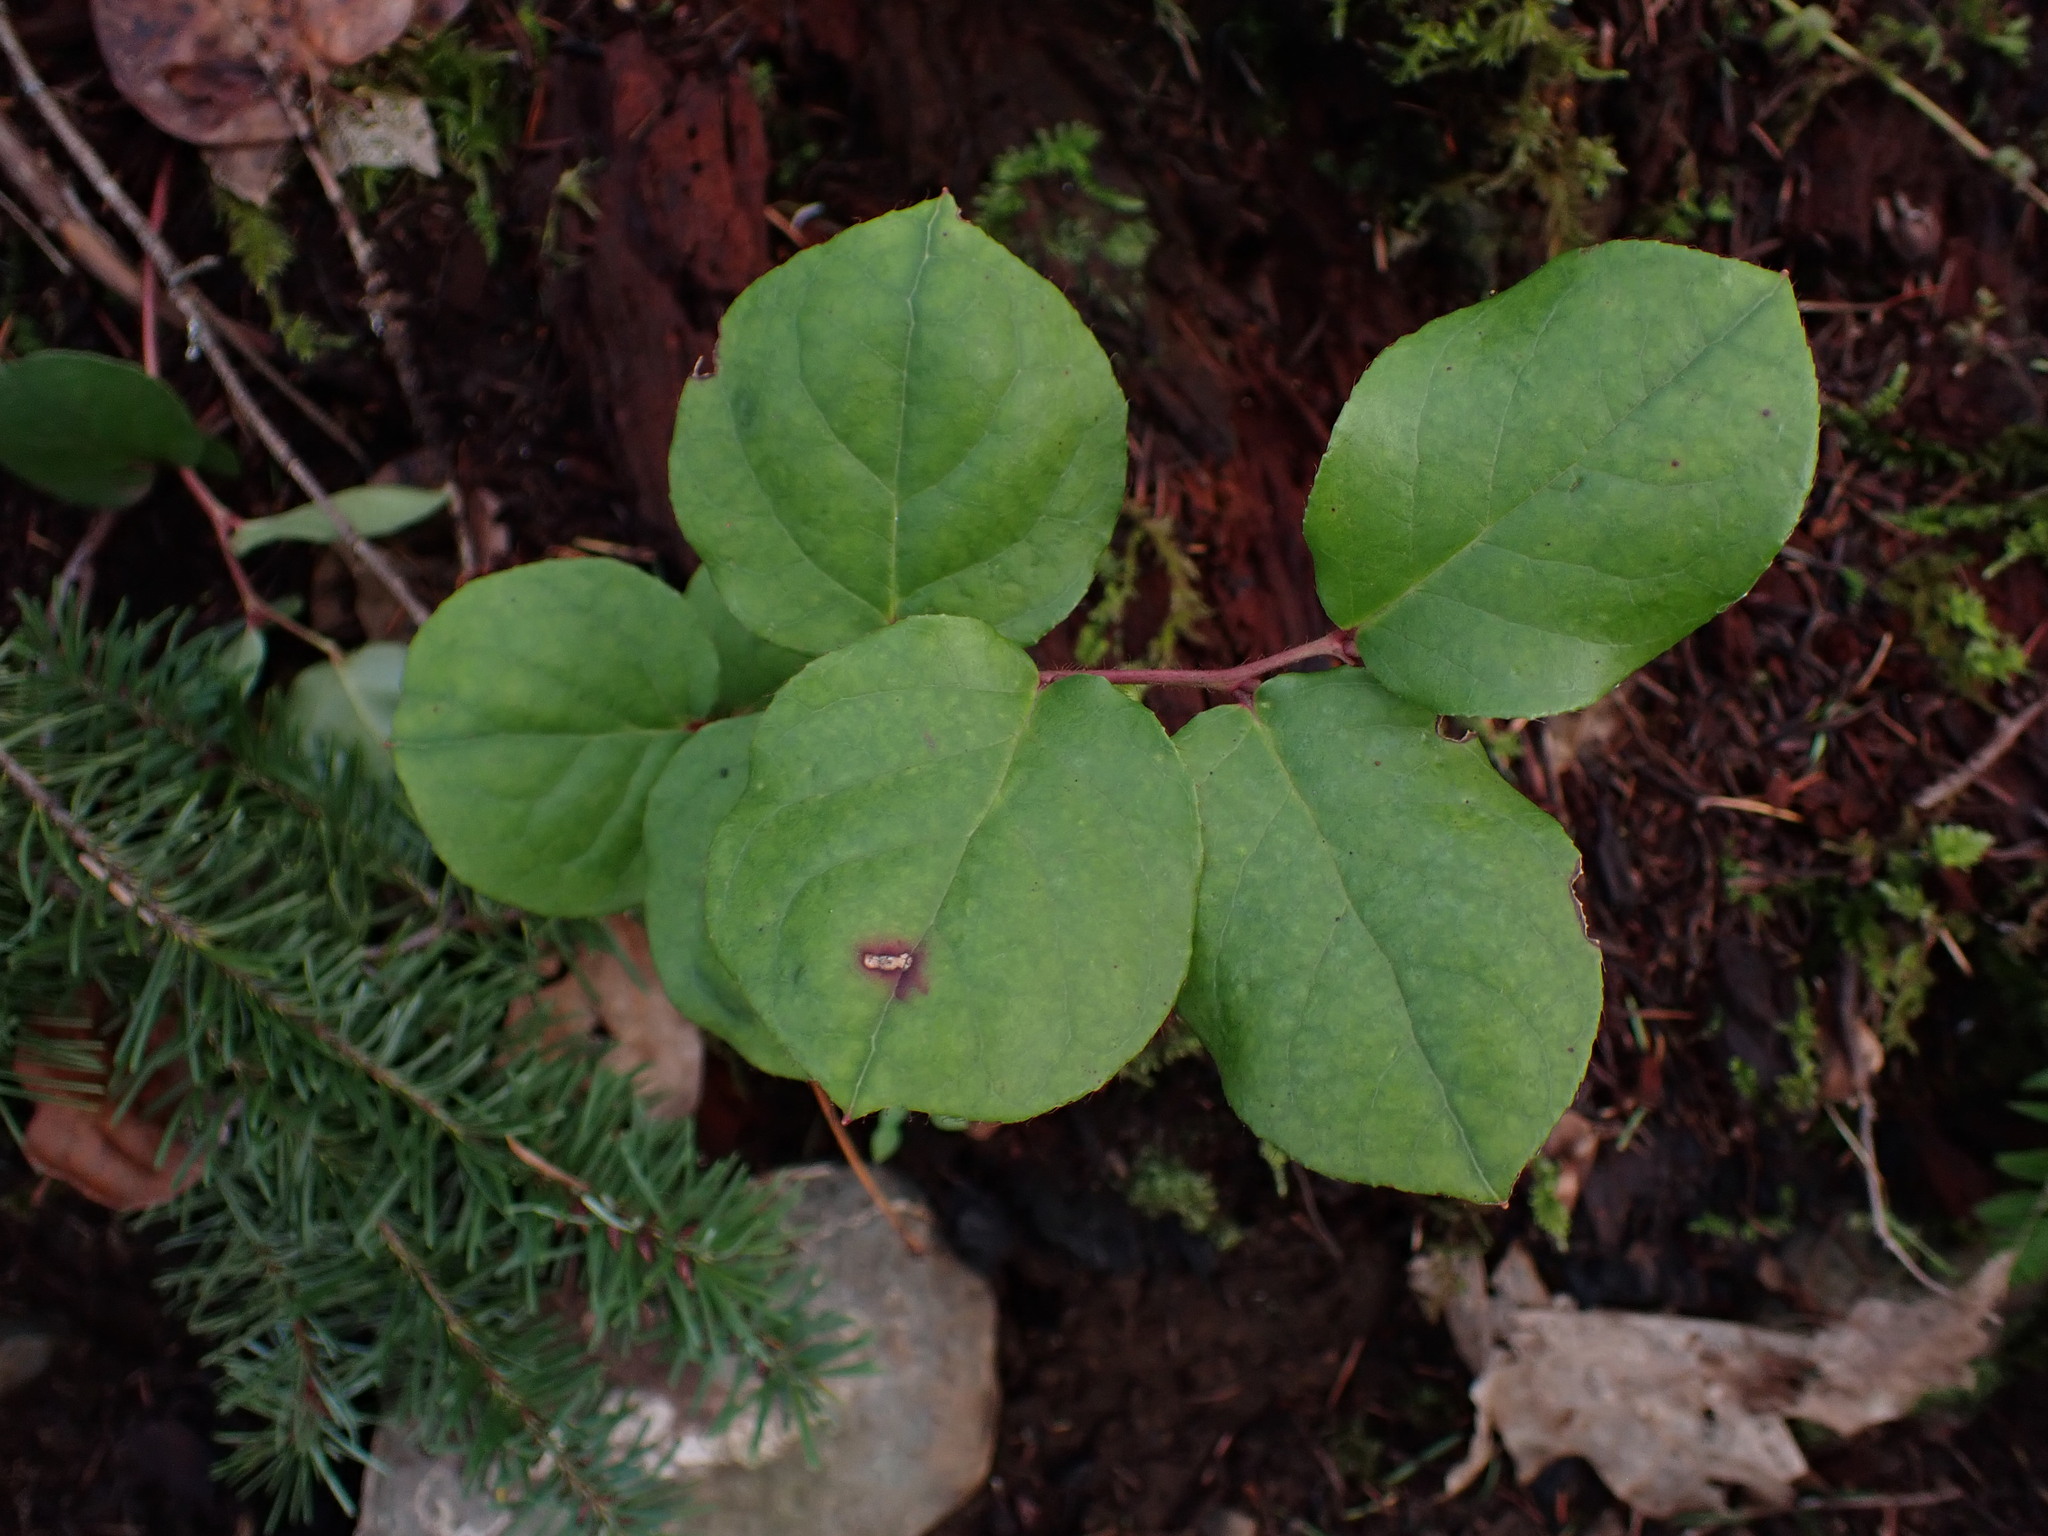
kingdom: Plantae
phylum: Tracheophyta
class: Magnoliopsida
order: Ericales
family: Ericaceae
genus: Gaultheria
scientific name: Gaultheria shallon
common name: Shallon
